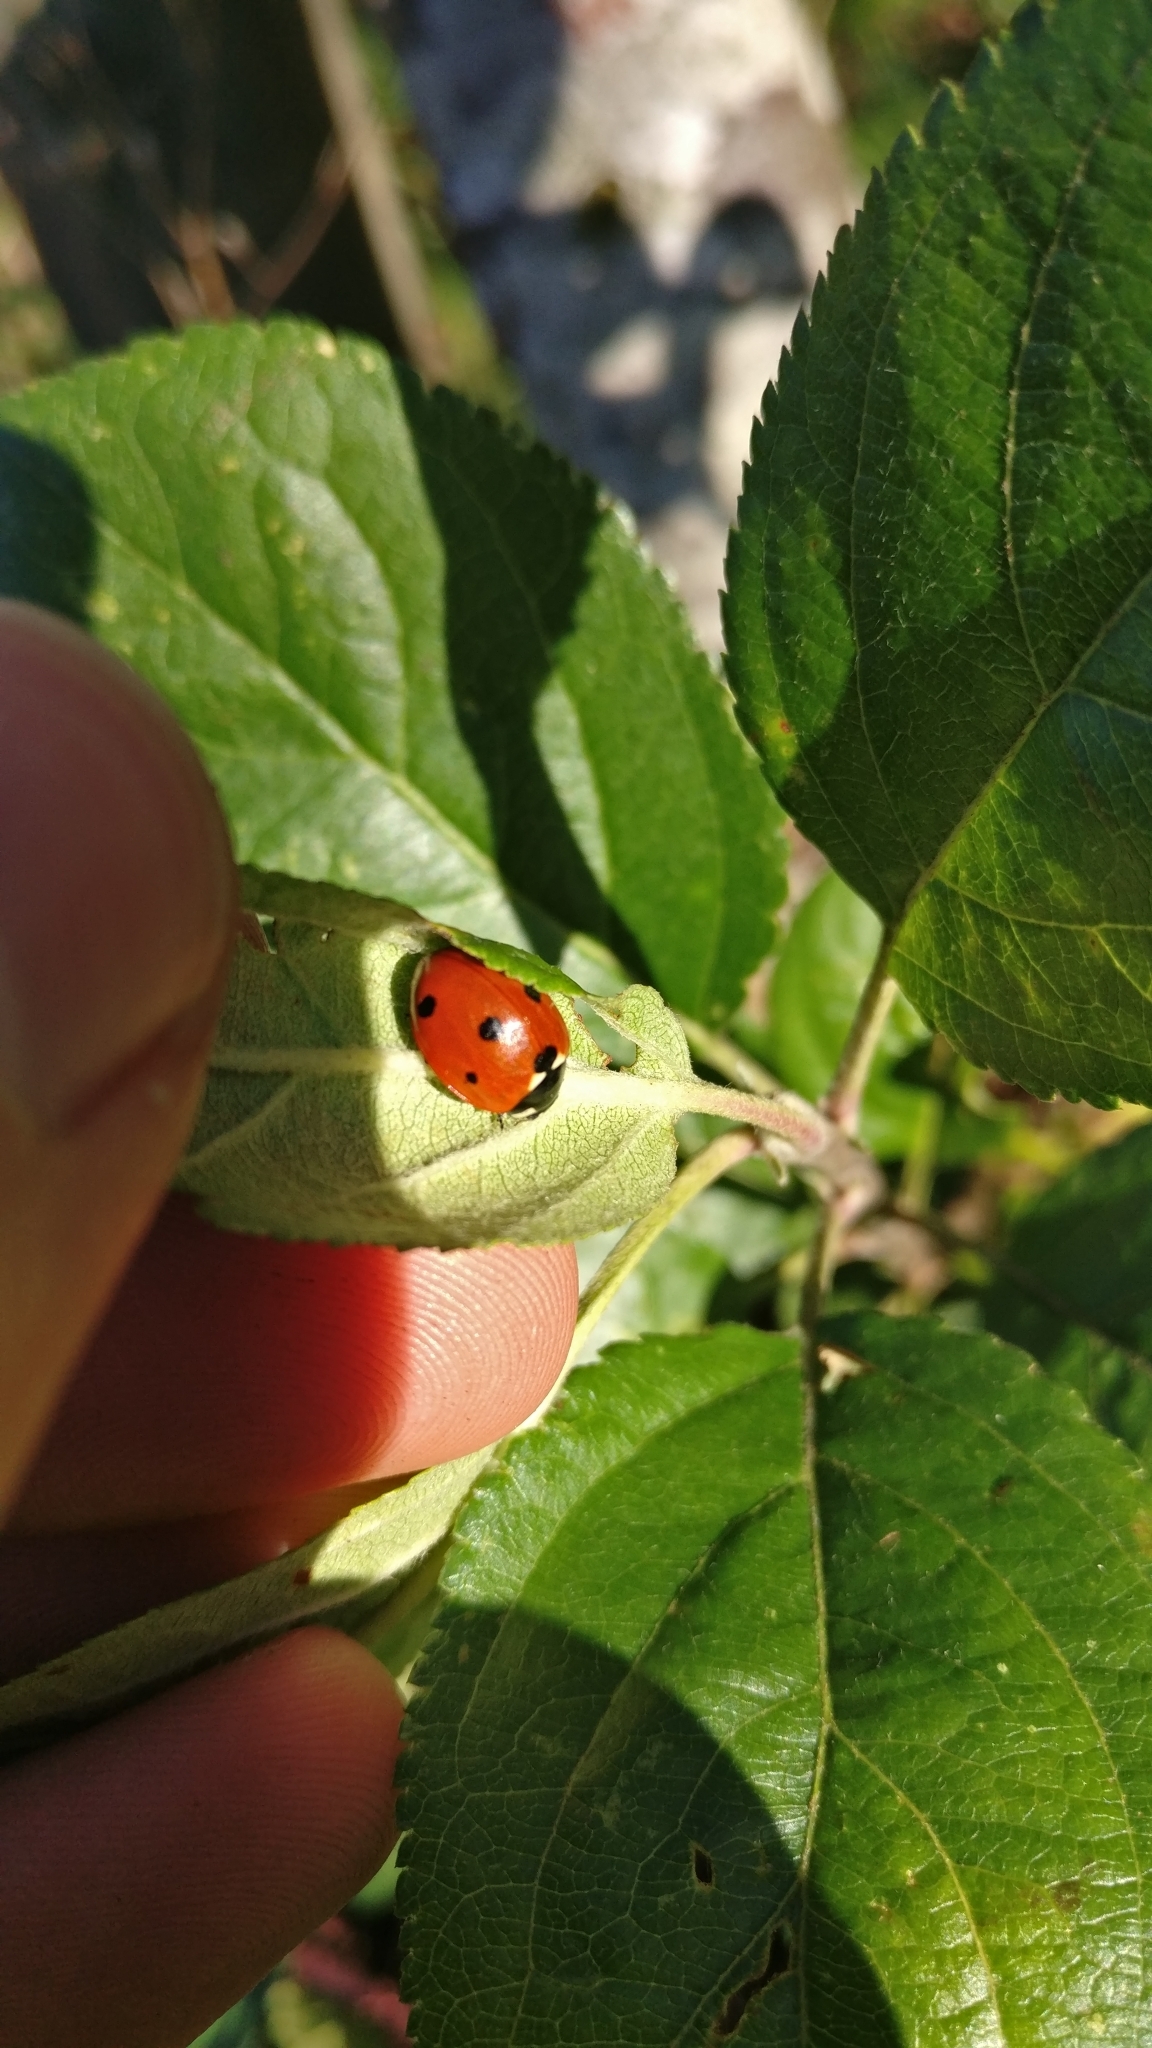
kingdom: Animalia
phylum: Arthropoda
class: Insecta
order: Coleoptera
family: Coccinellidae
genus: Coccinella
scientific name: Coccinella septempunctata
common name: Sevenspotted lady beetle
